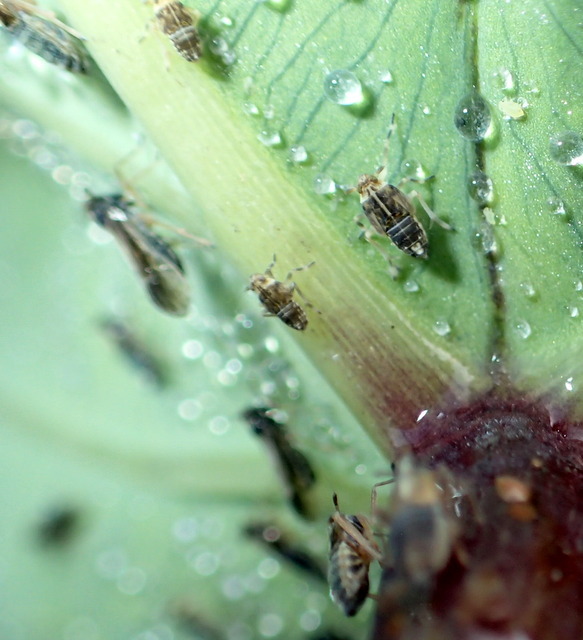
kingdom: Animalia
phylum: Arthropoda
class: Insecta
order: Hemiptera
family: Delphacidae
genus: Tarophagus
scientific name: Tarophagus colocasiae
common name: Taro planthopper
